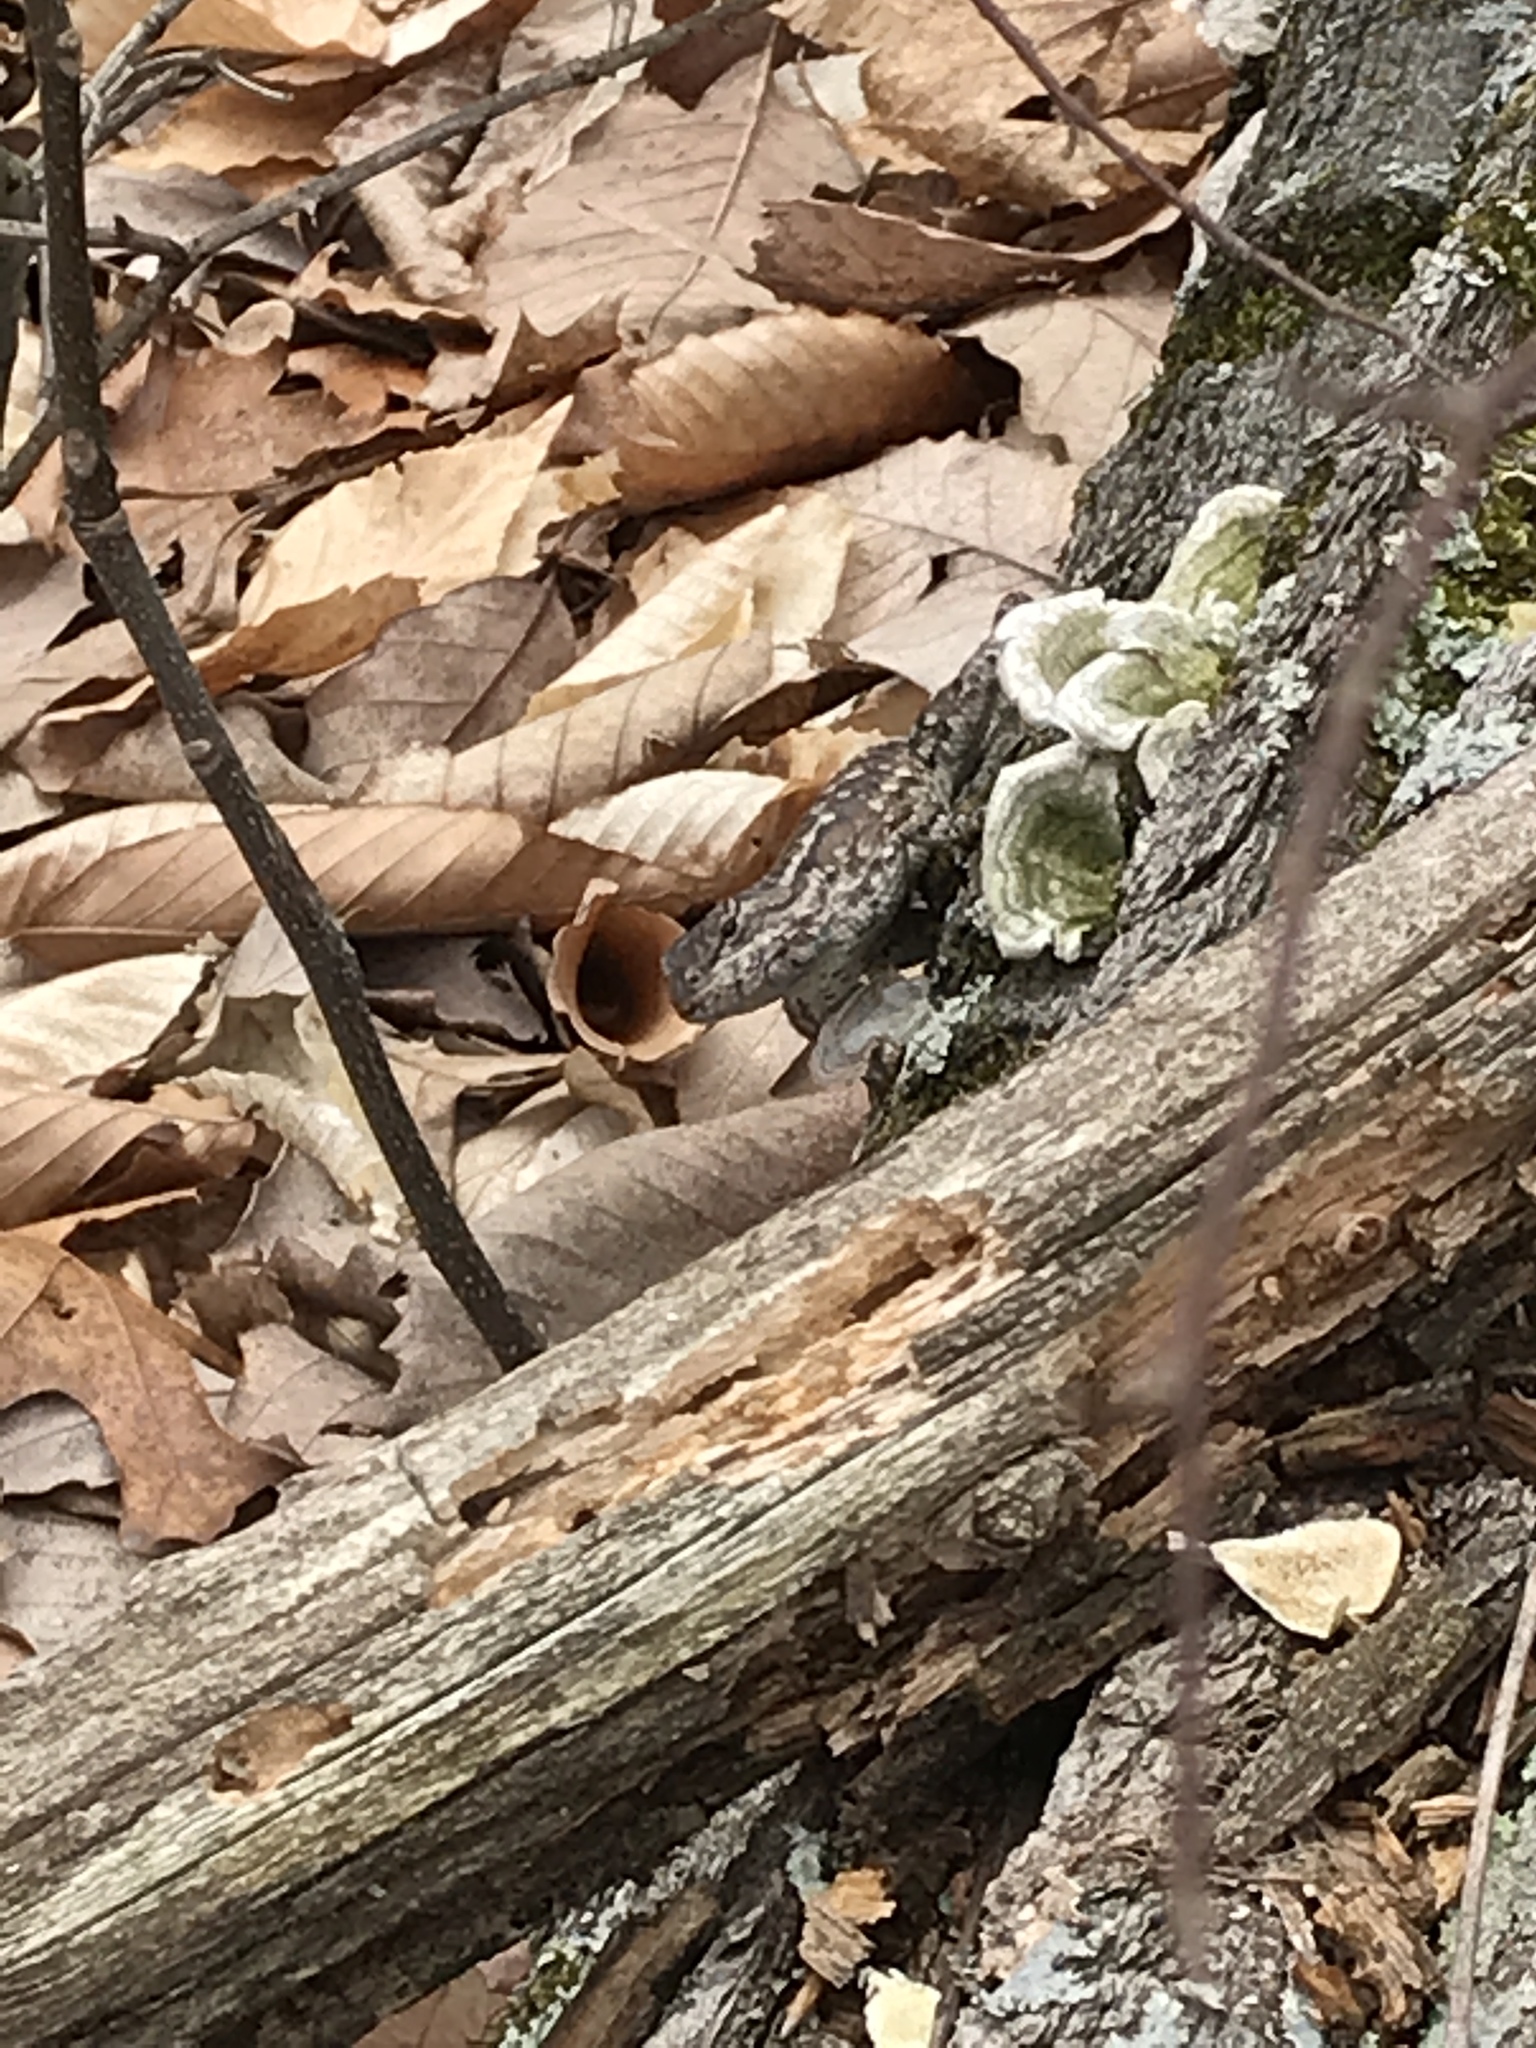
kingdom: Animalia
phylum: Chordata
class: Squamata
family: Phrynosomatidae
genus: Sceloporus
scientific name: Sceloporus undulatus
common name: Eastern fence lizard
